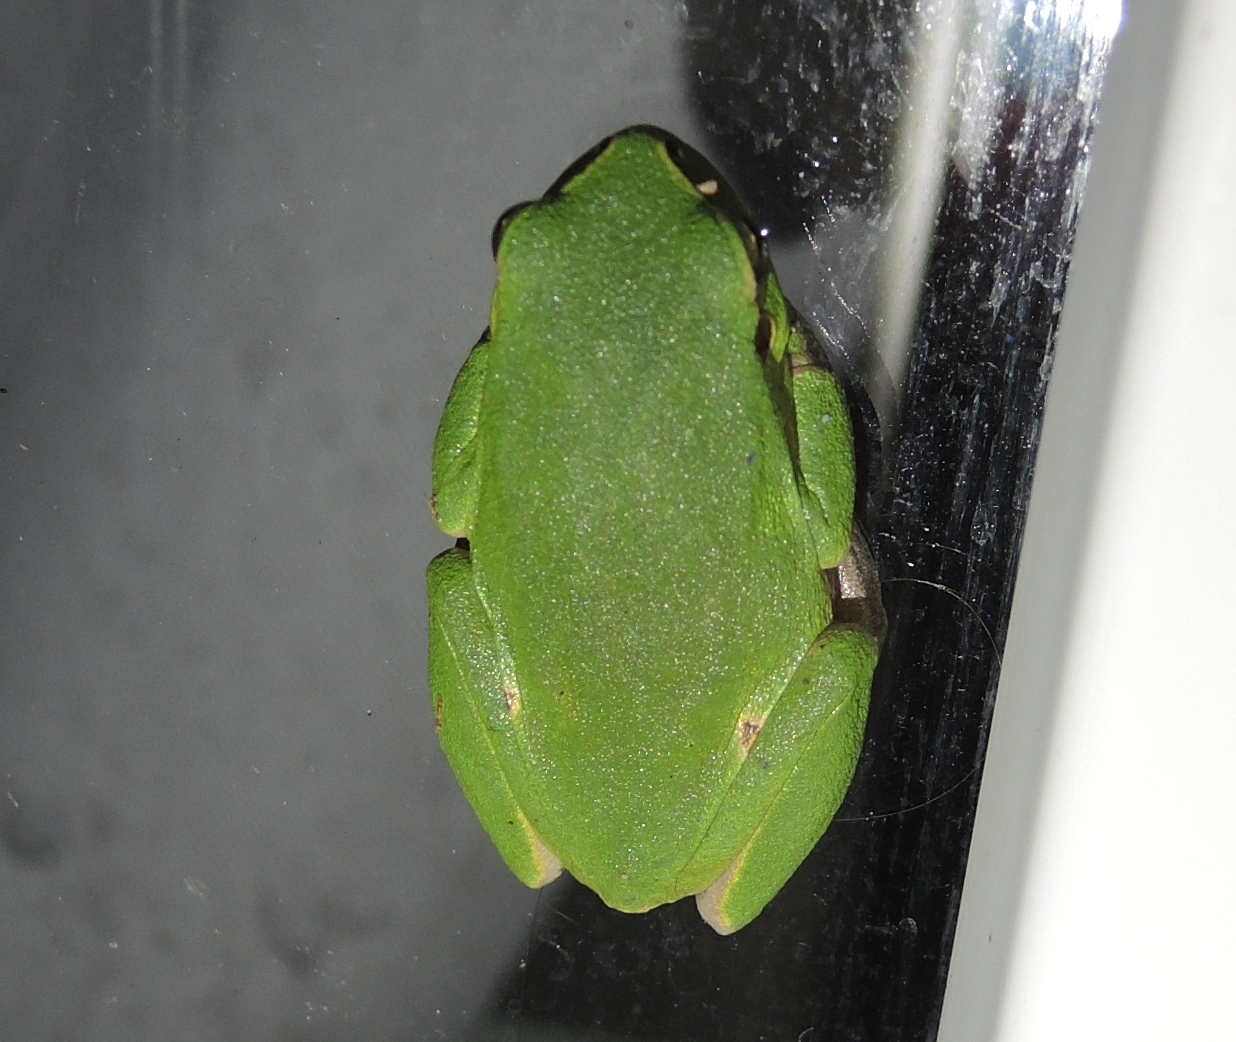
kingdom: Animalia
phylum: Chordata
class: Amphibia
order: Anura
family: Hylidae
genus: Hyla
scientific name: Hyla orientalis
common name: Caucasian treefrog
